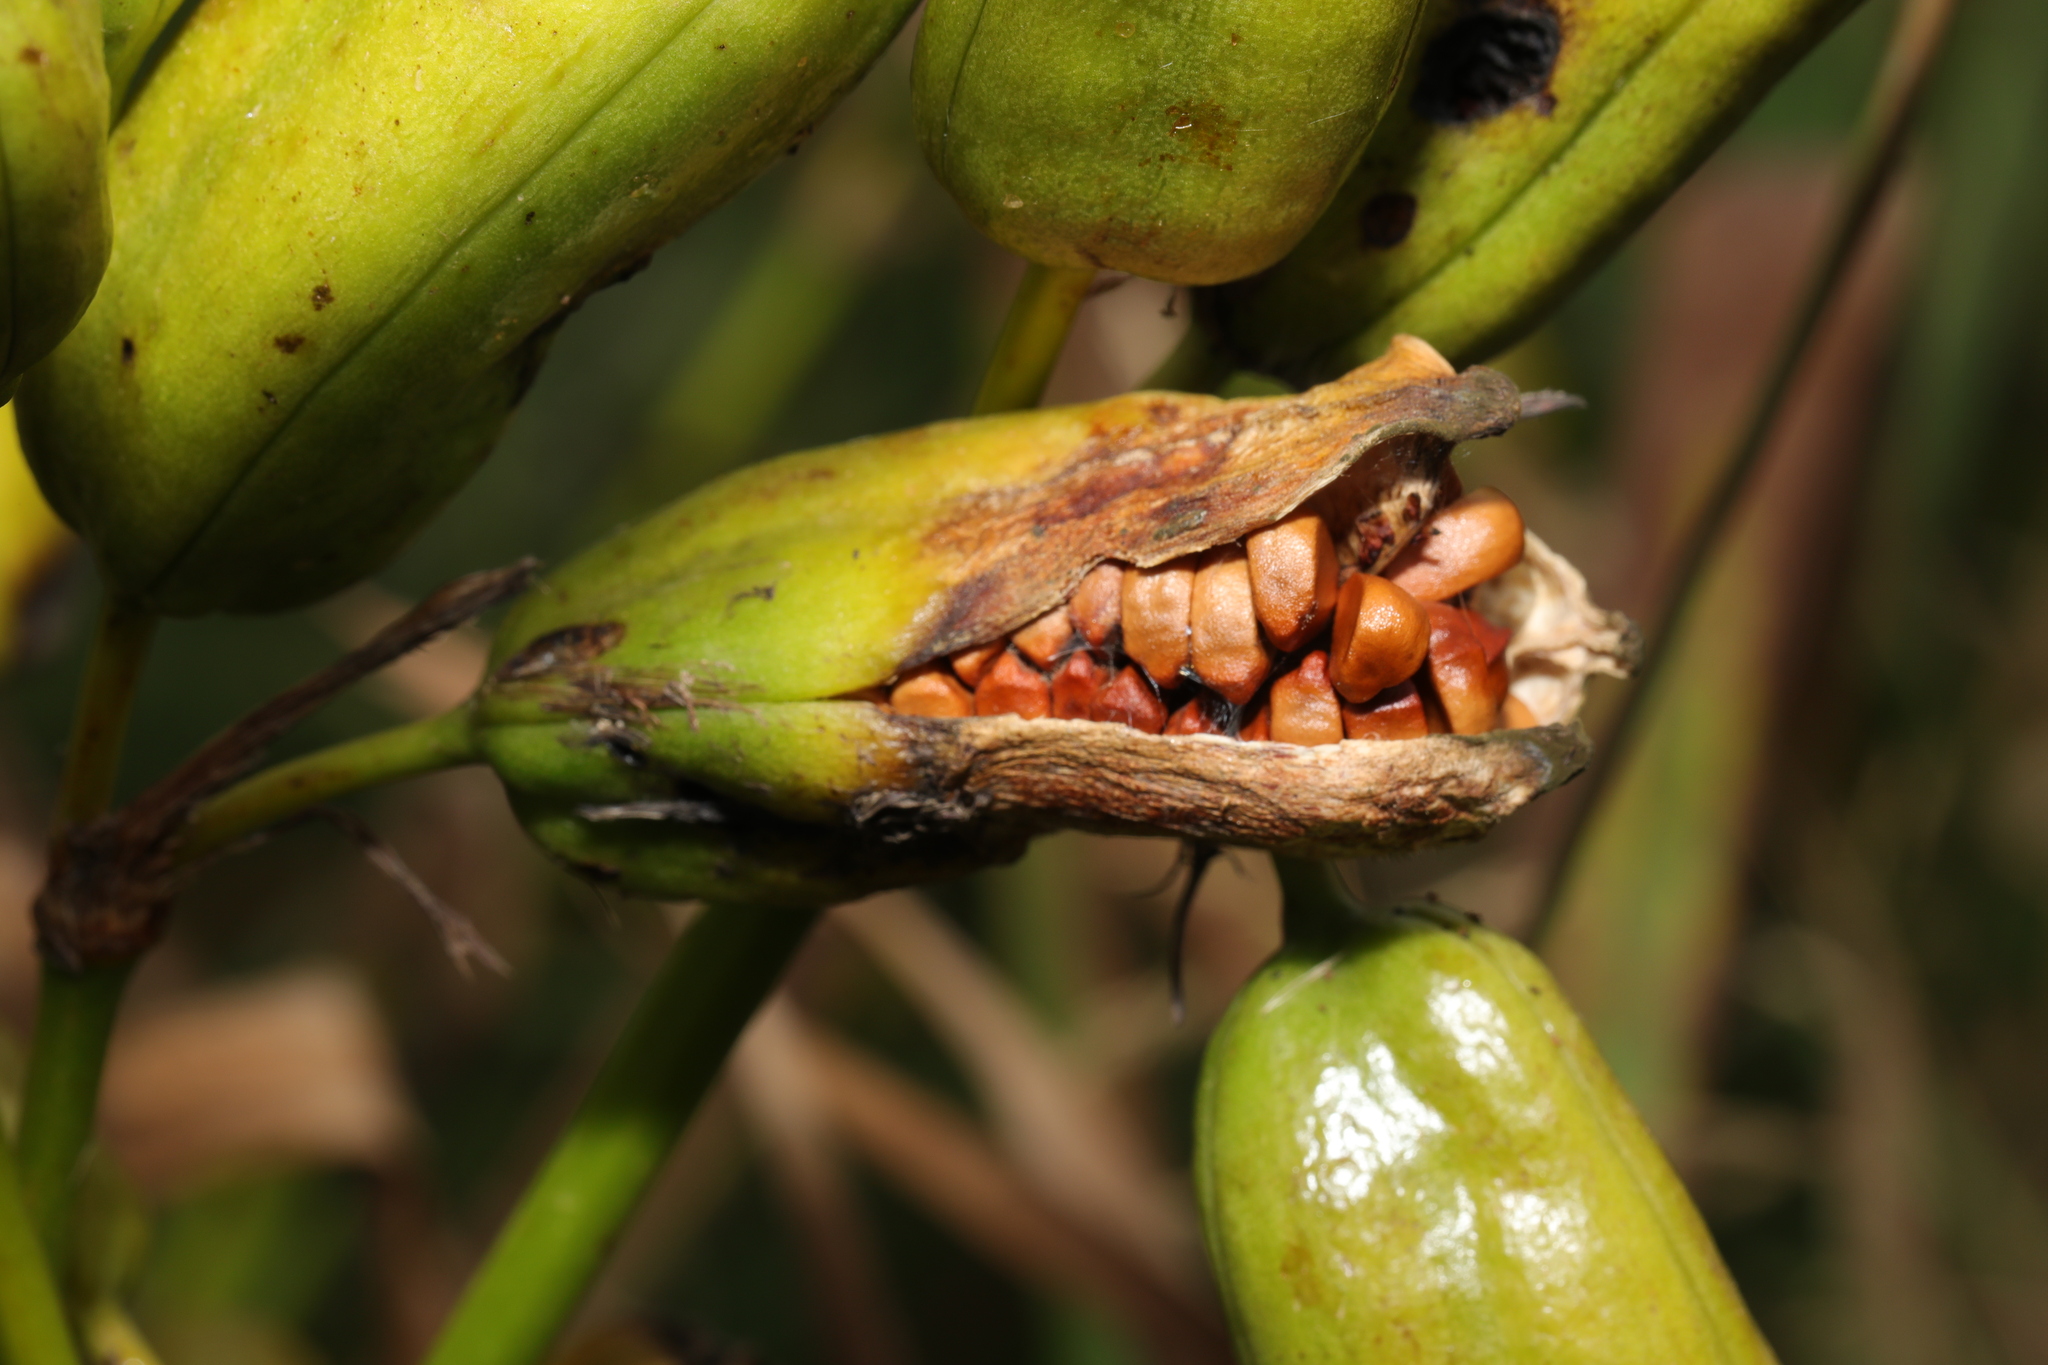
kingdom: Plantae
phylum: Tracheophyta
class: Liliopsida
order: Asparagales
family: Iridaceae
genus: Iris
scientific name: Iris pseudacorus
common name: Yellow flag
